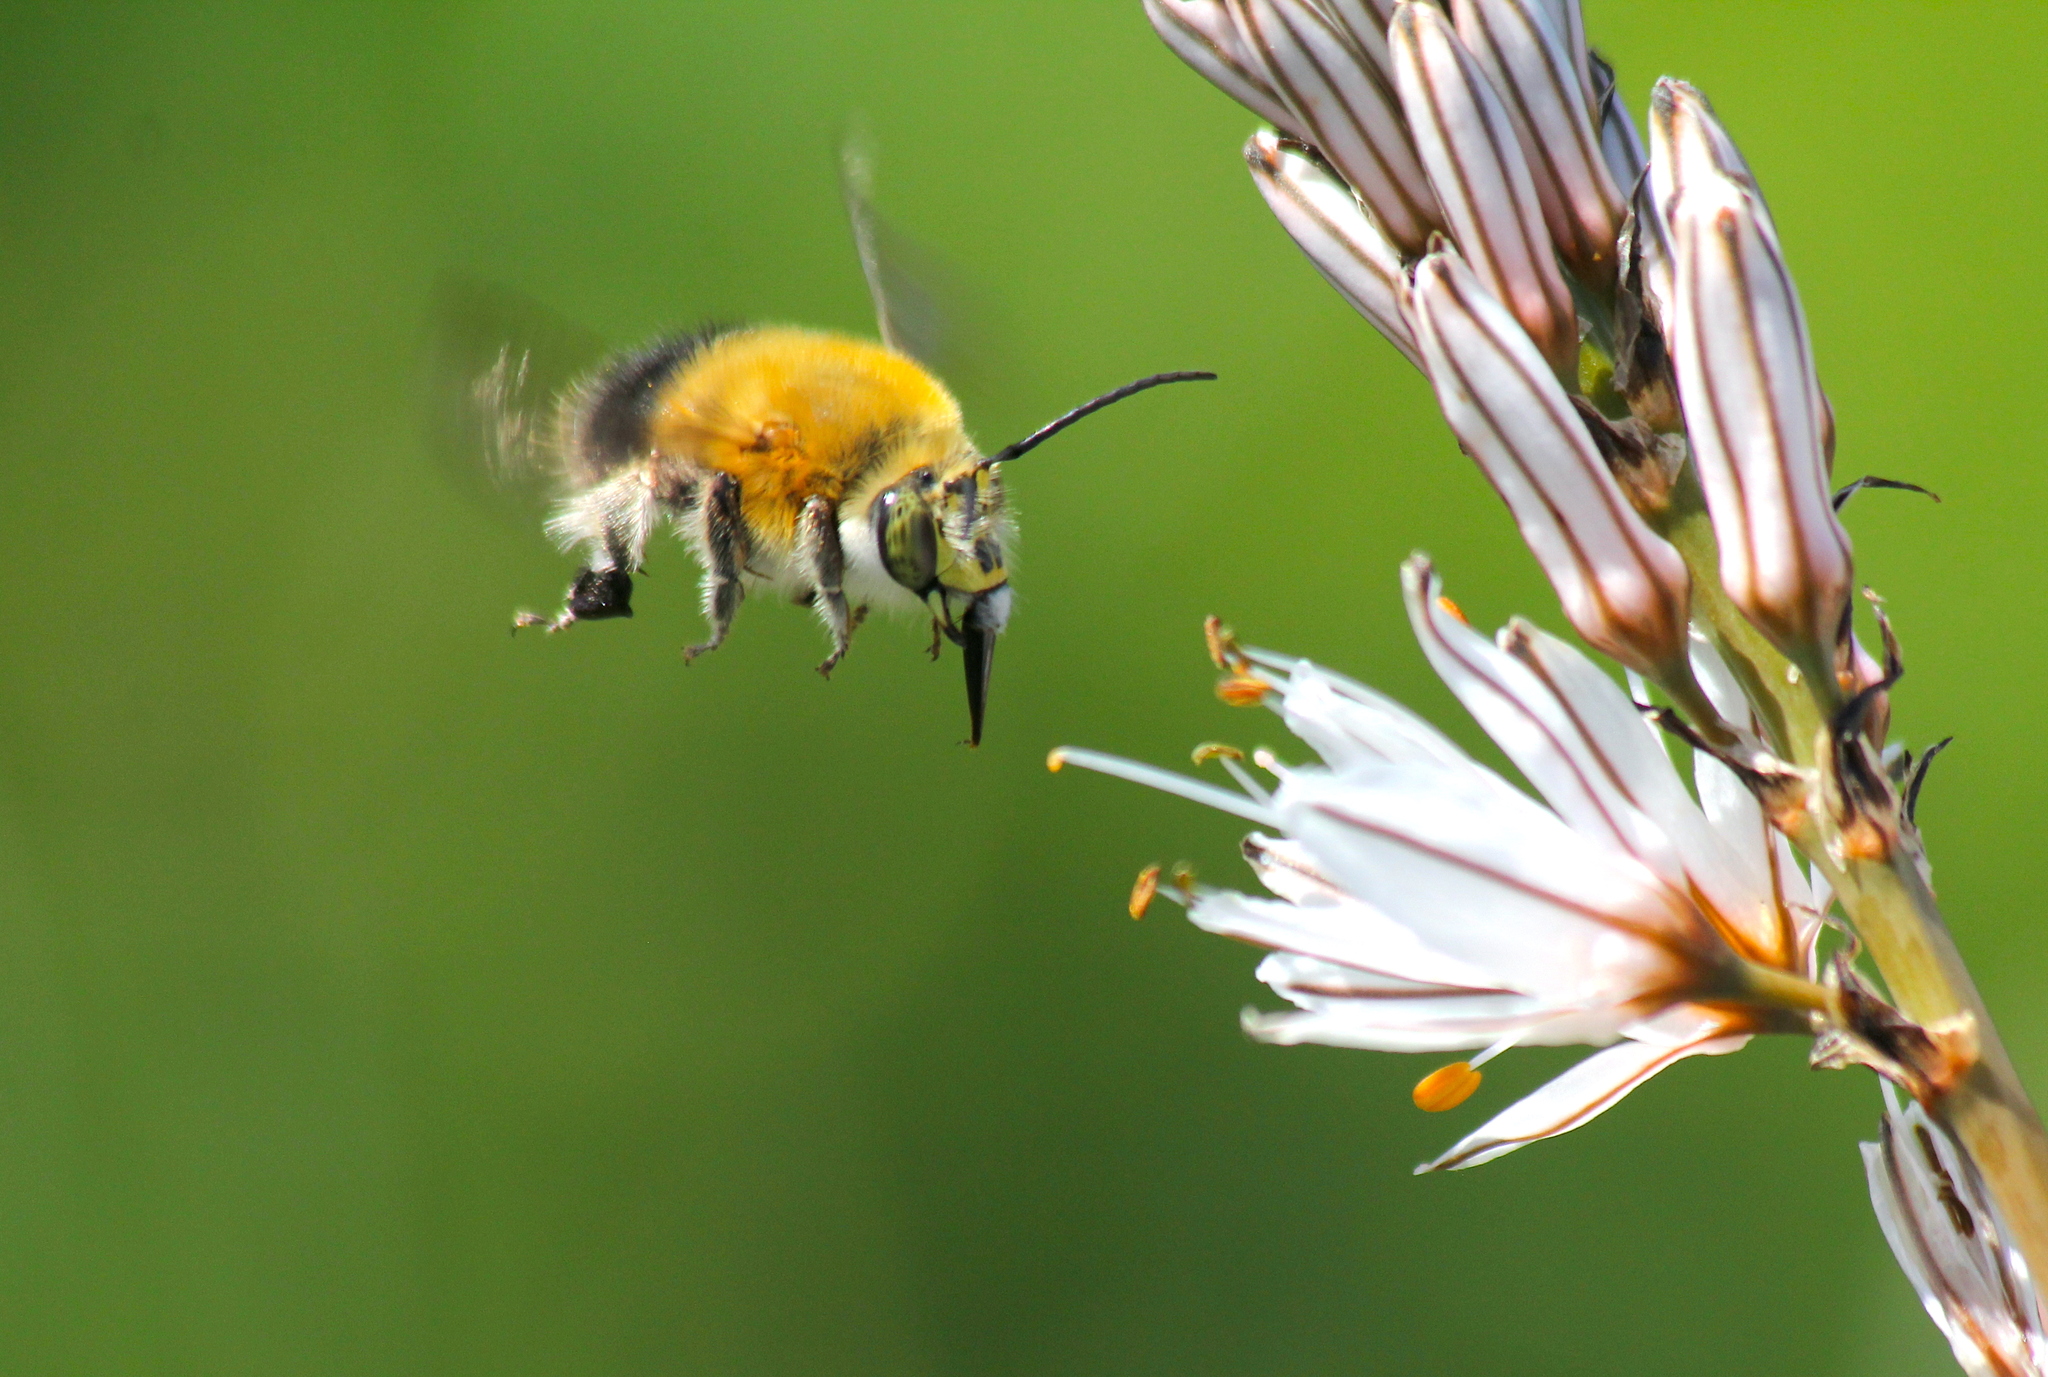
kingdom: Animalia
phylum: Arthropoda
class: Insecta
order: Hymenoptera
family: Apidae
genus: Habropoda
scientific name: Habropoda tarsata
